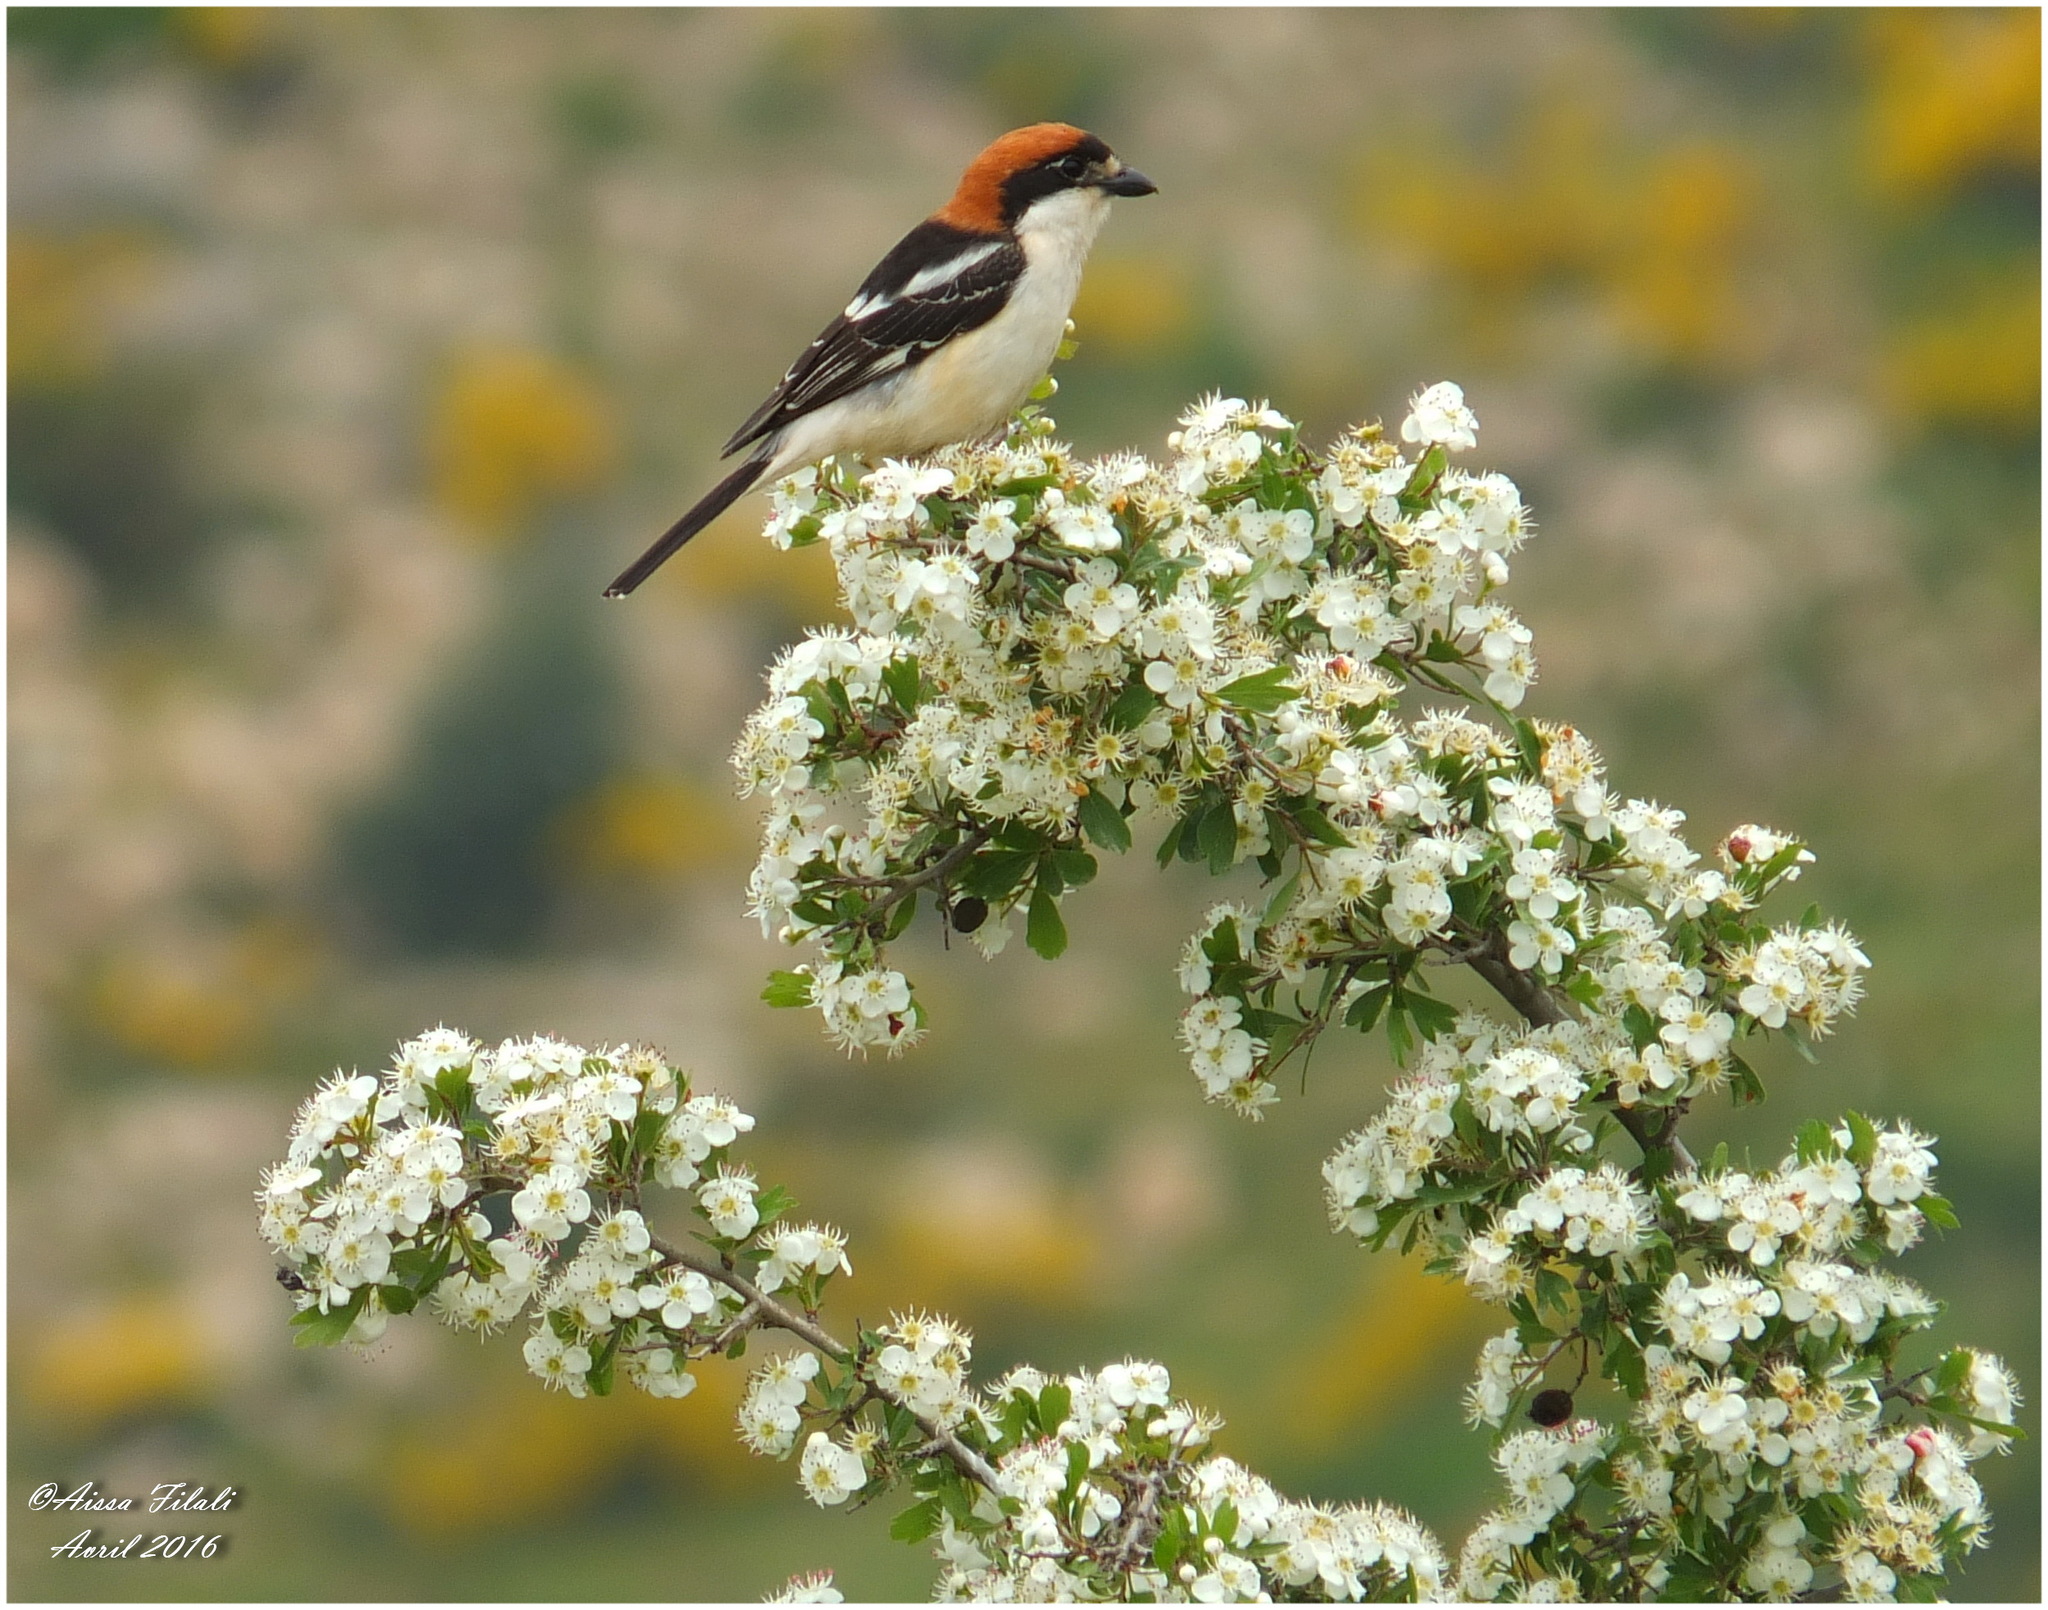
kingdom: Animalia
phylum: Chordata
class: Aves
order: Passeriformes
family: Laniidae
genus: Lanius
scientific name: Lanius senator
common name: Woodchat shrike
